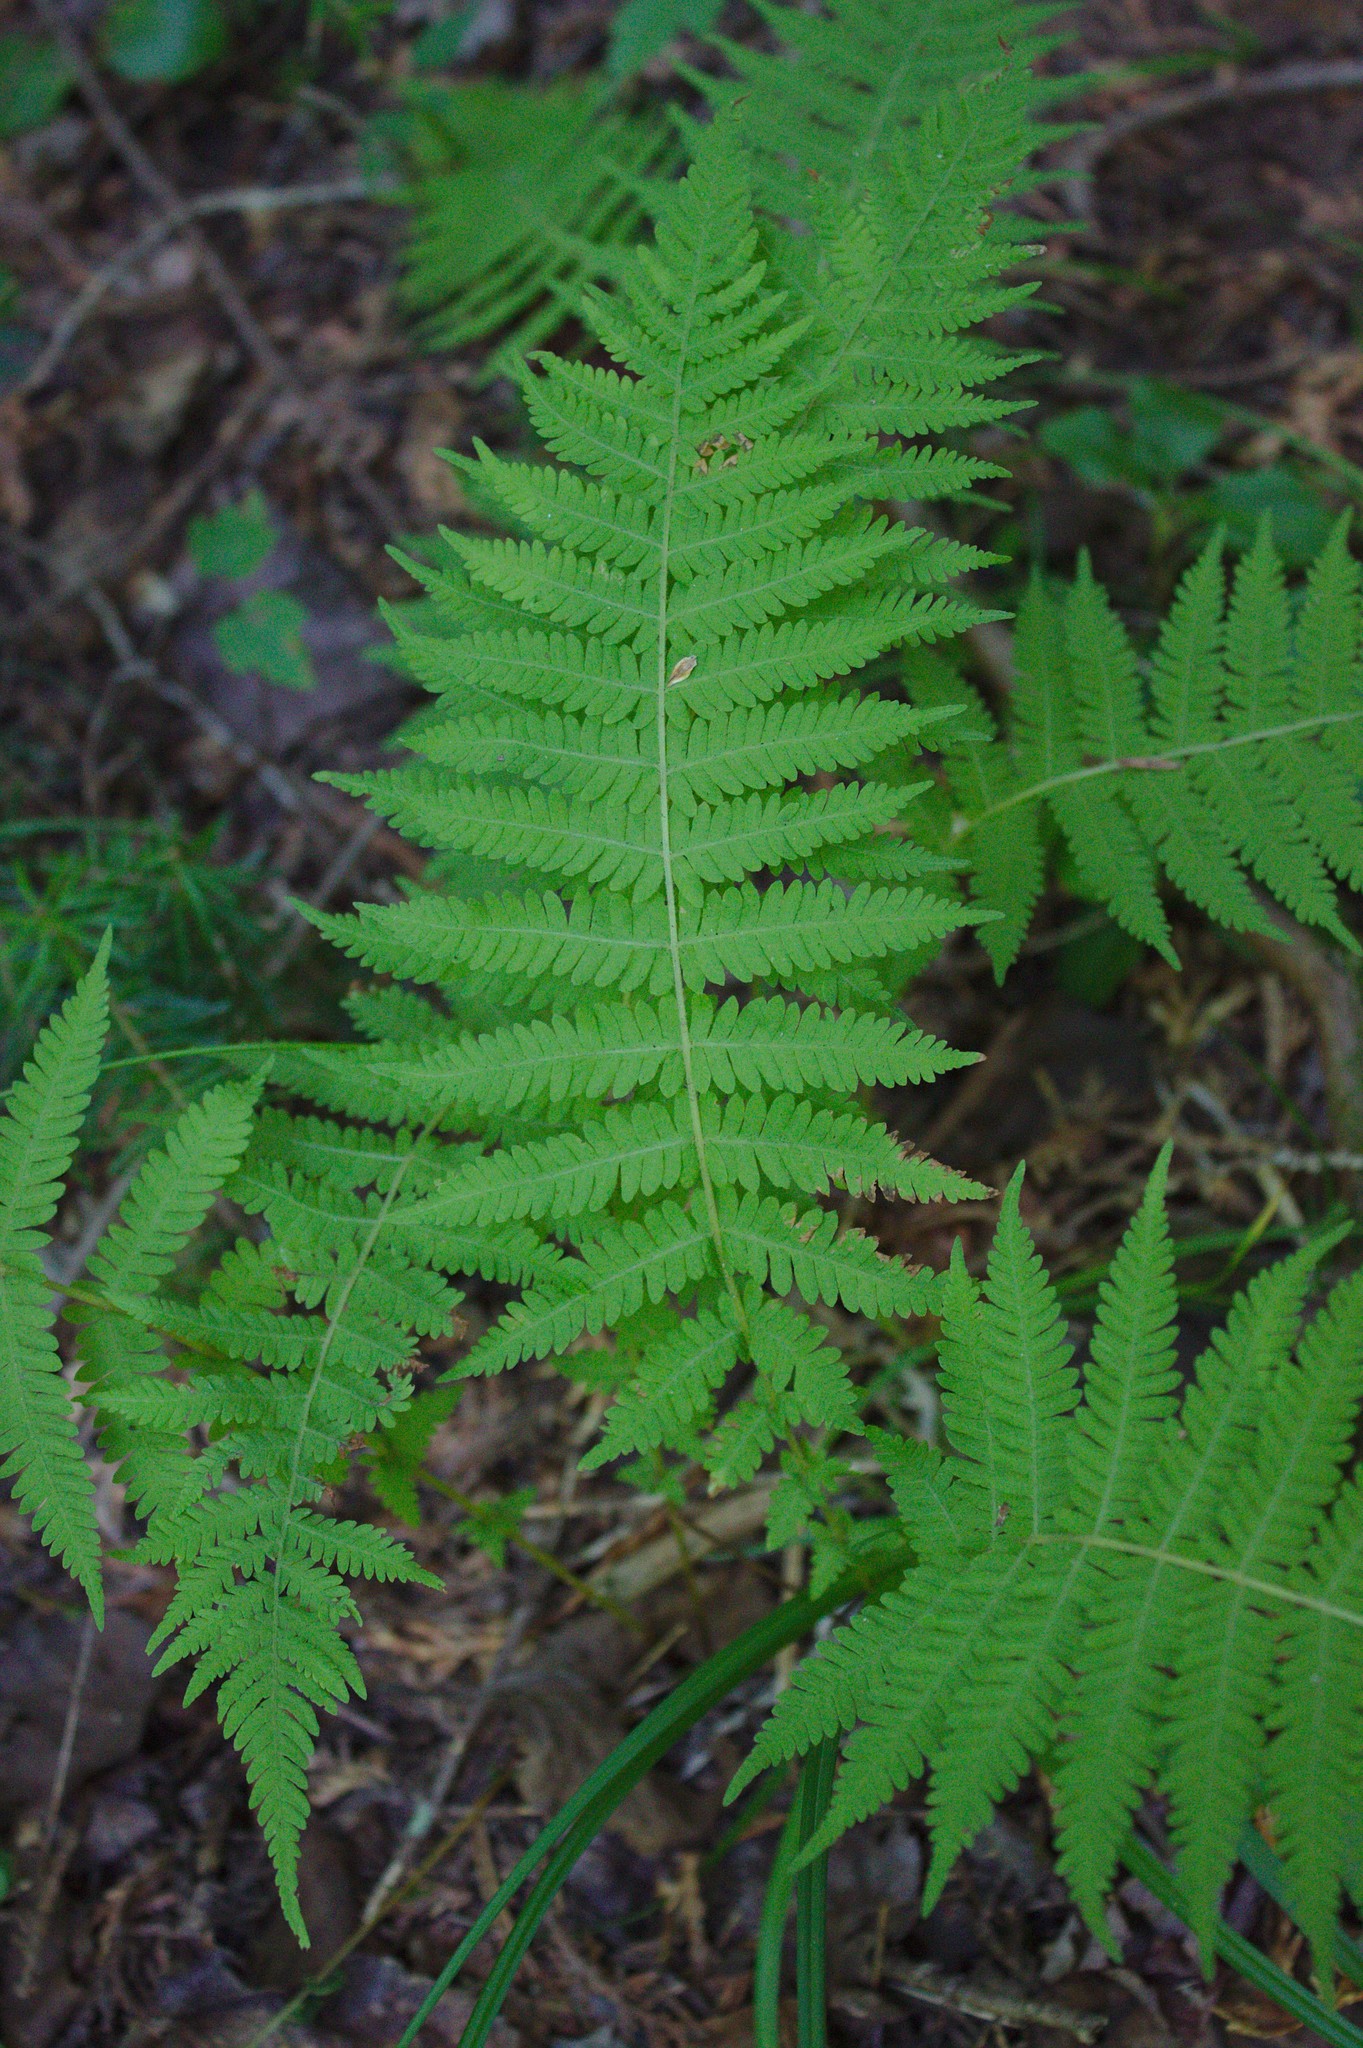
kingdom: Plantae
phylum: Tracheophyta
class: Polypodiopsida
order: Polypodiales
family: Thelypteridaceae
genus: Amauropelta
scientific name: Amauropelta noveboracensis
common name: New york fern
